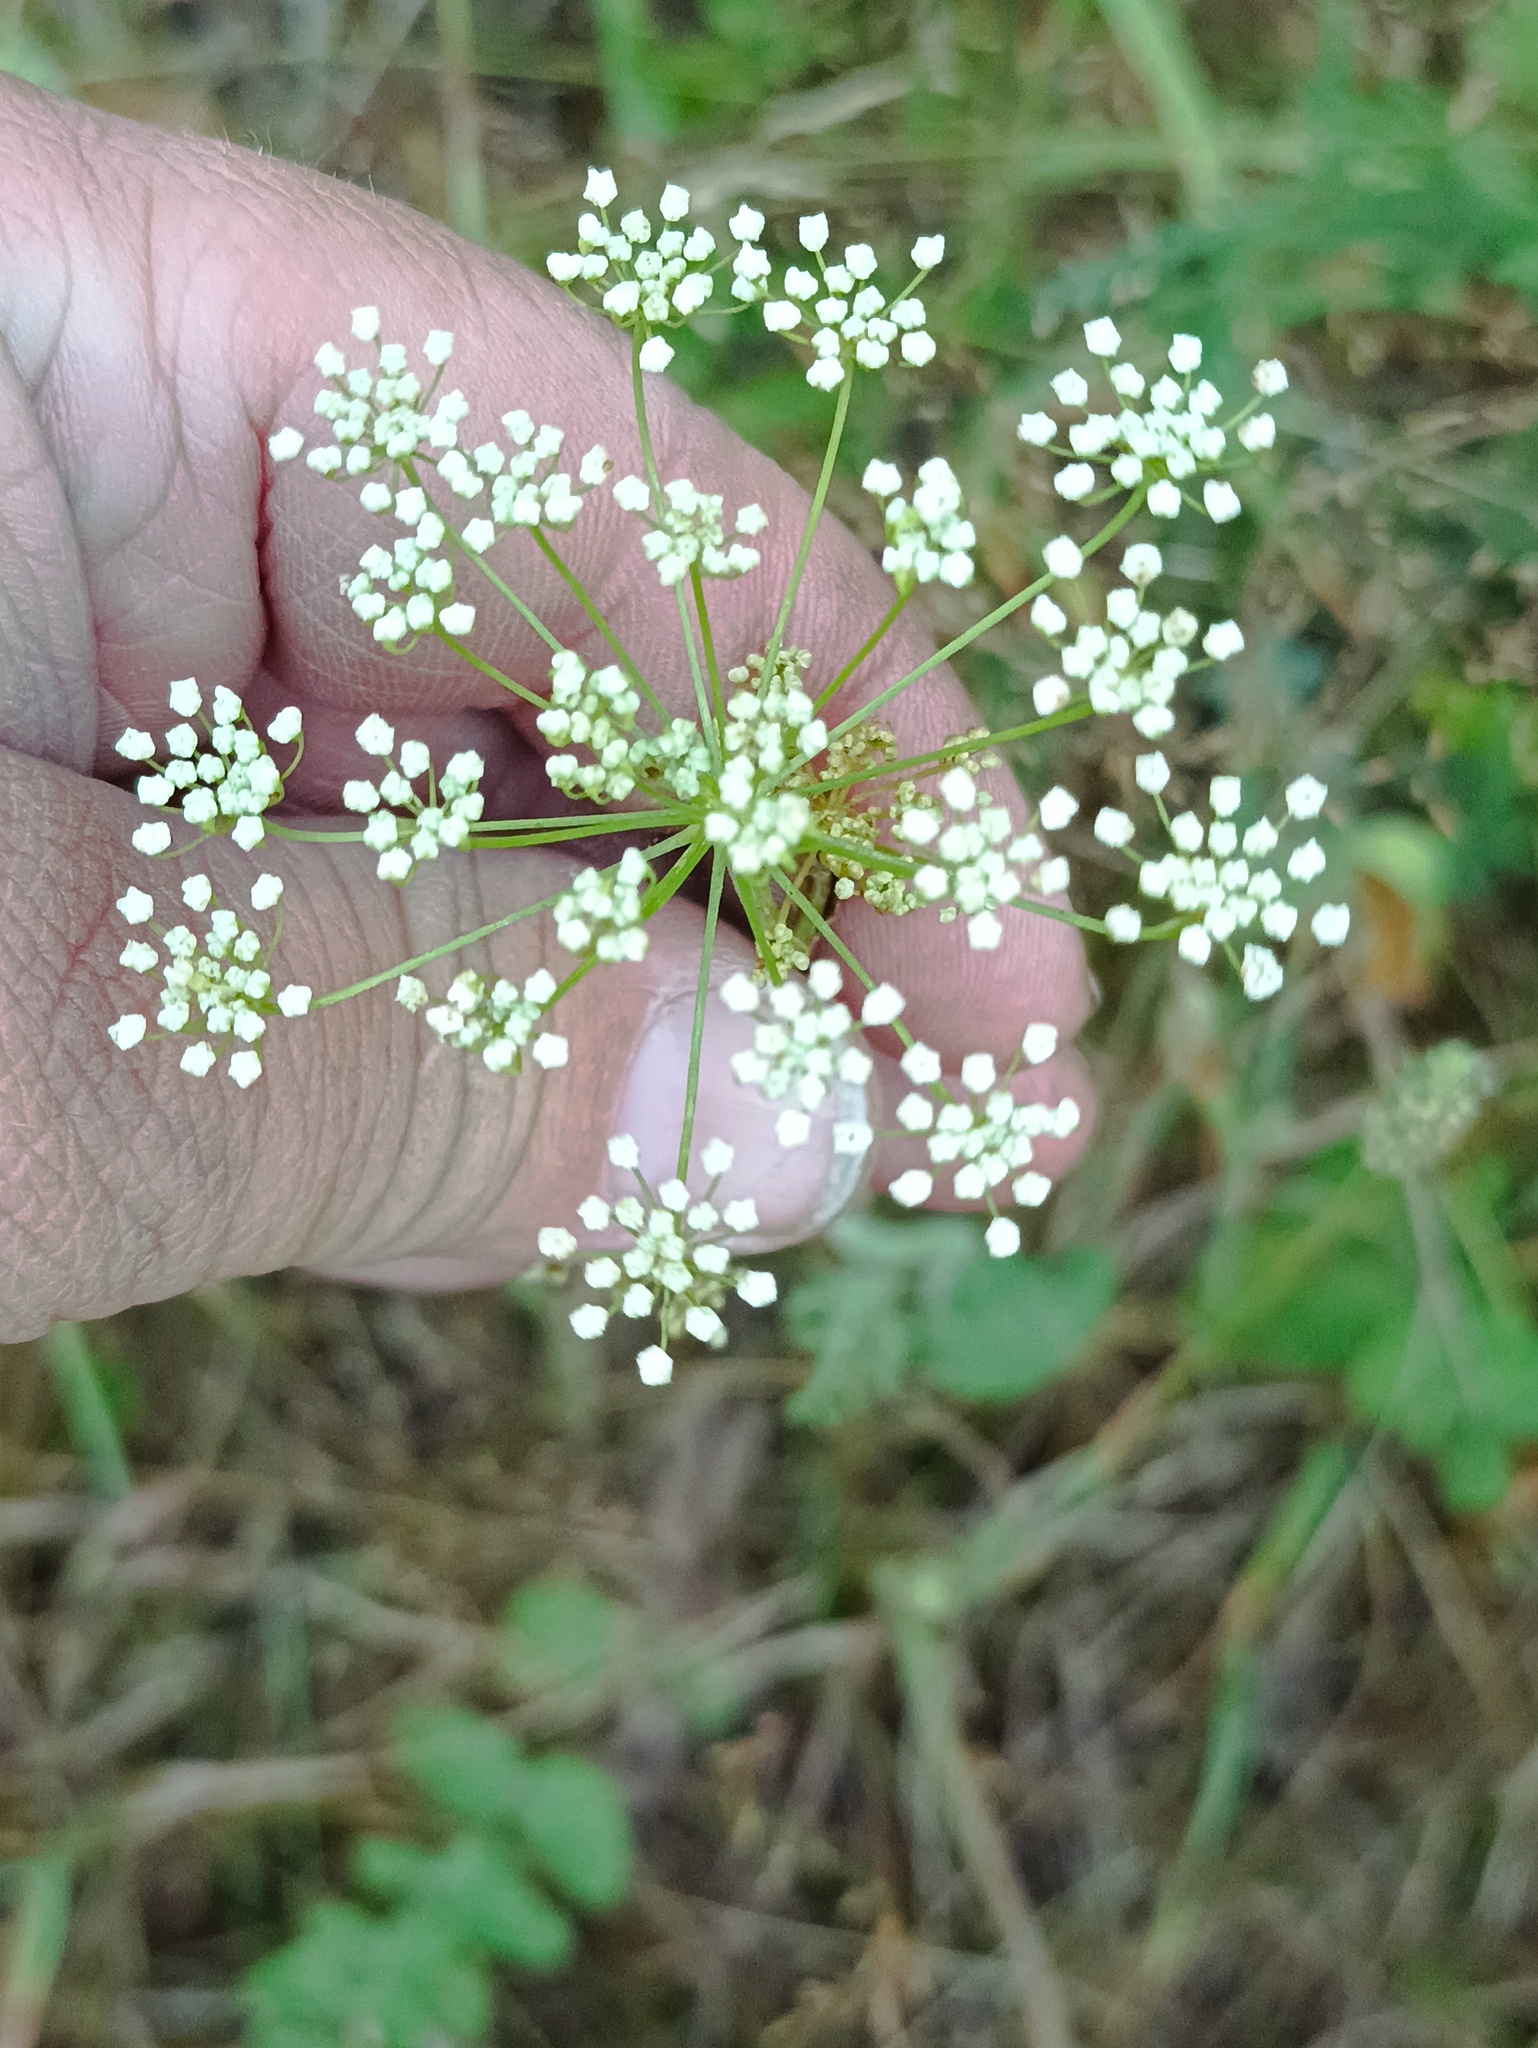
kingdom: Plantae
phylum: Tracheophyta
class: Magnoliopsida
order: Apiales
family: Apiaceae
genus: Pimpinella
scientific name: Pimpinella saxifraga
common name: Burnet-saxifrage
